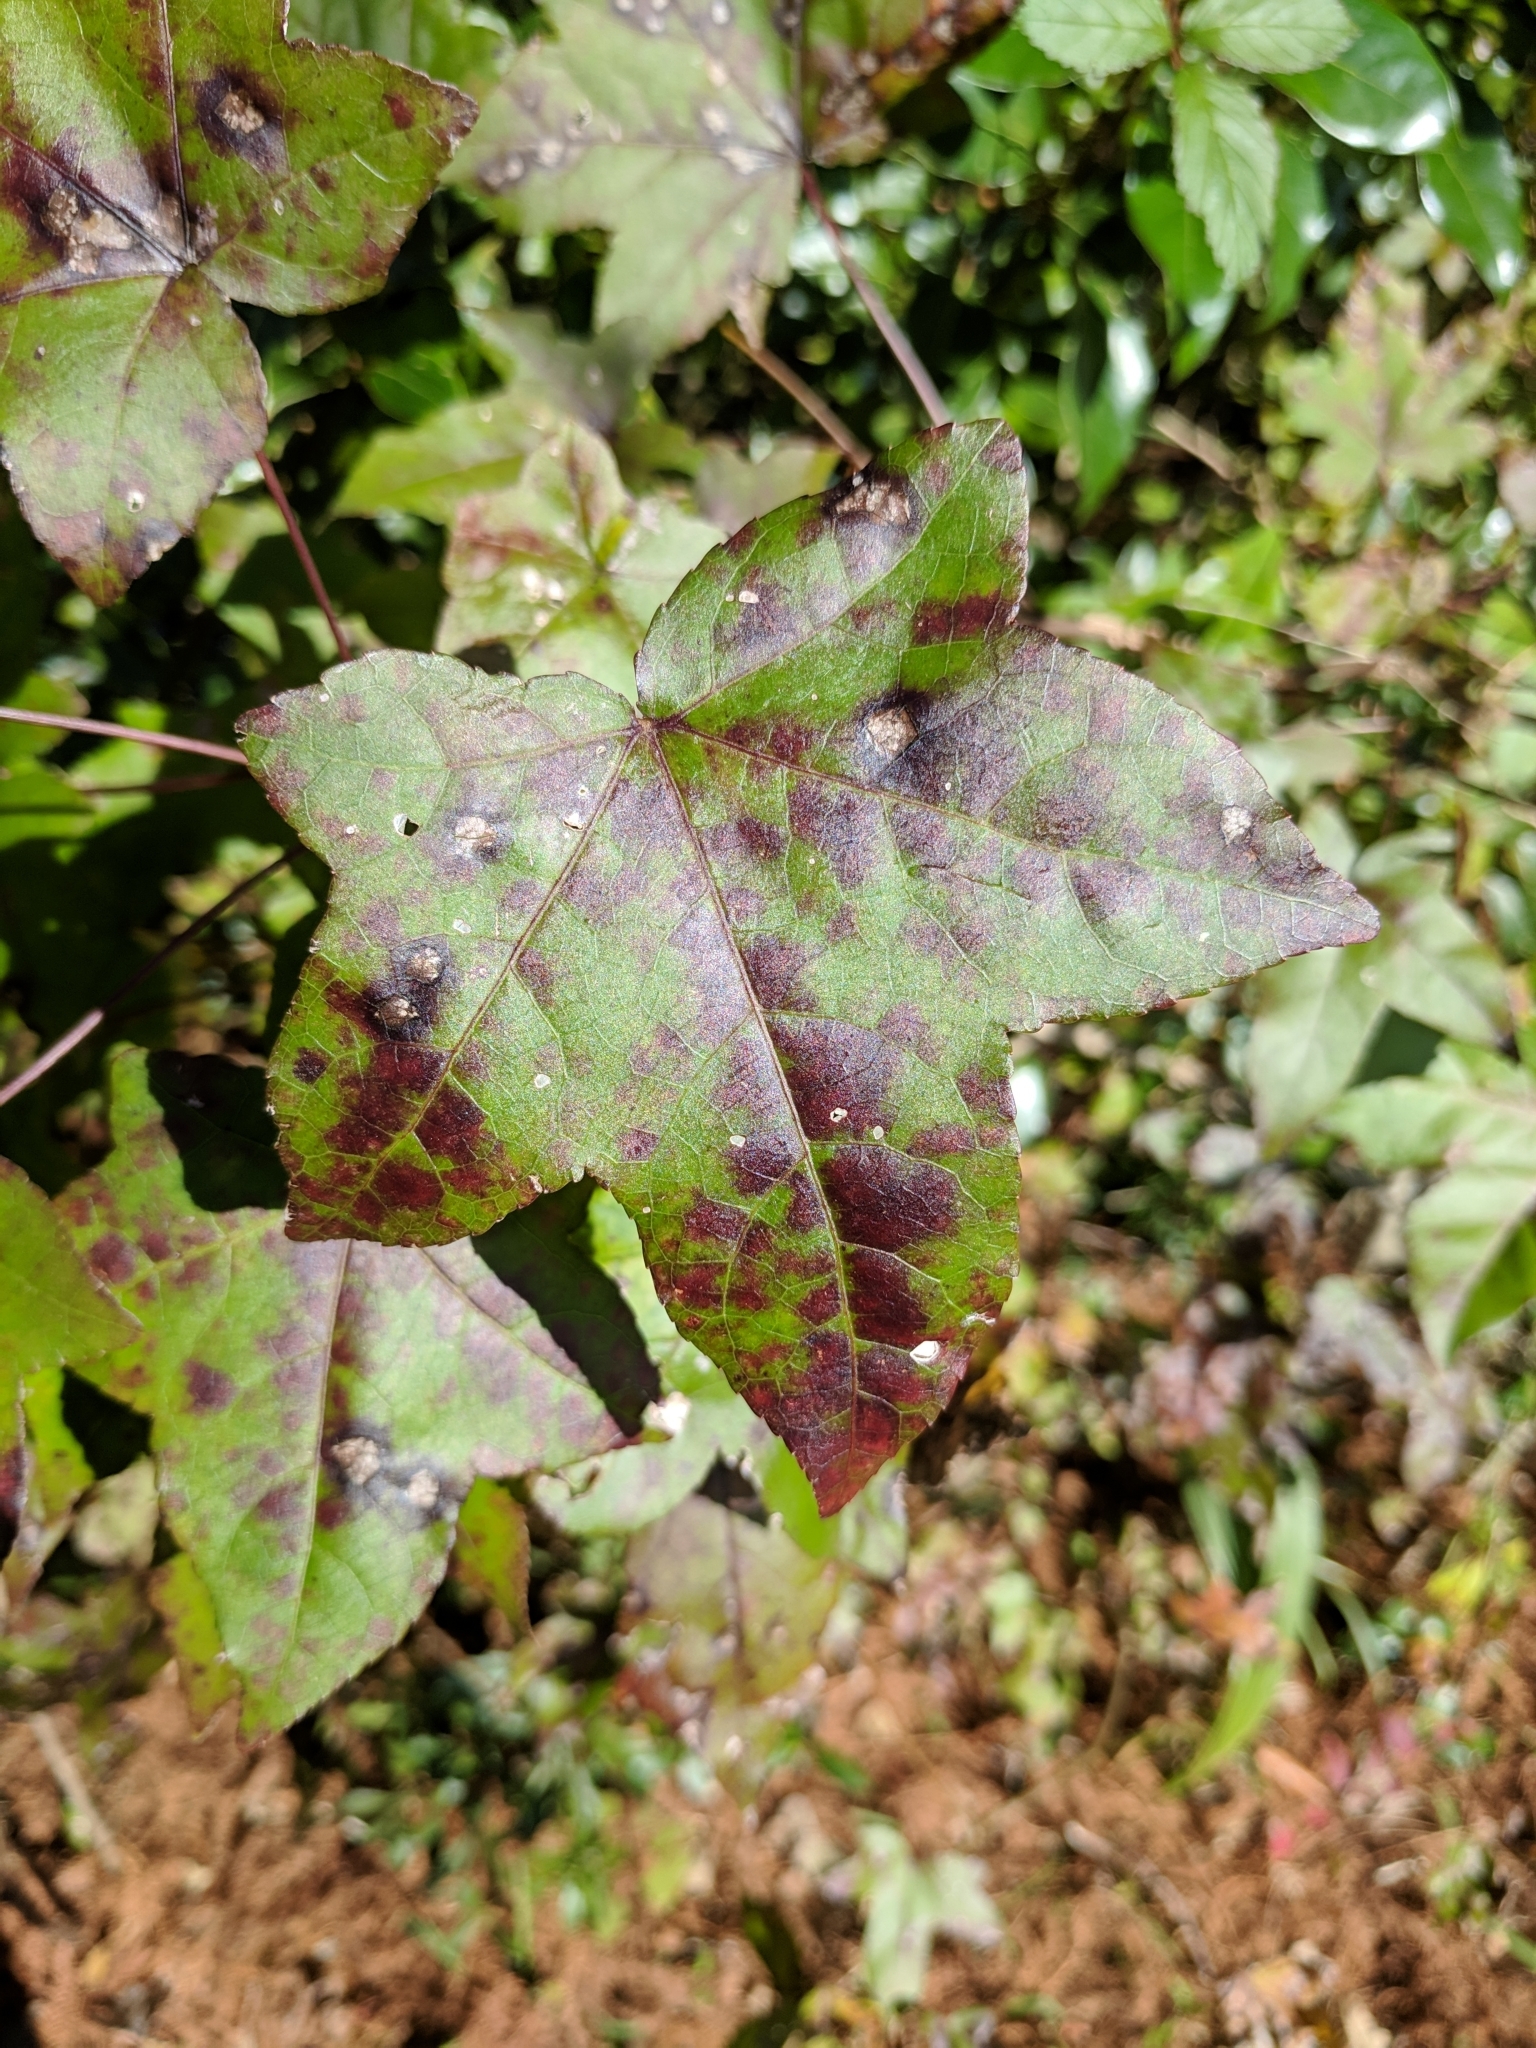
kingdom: Plantae
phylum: Tracheophyta
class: Magnoliopsida
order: Saxifragales
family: Altingiaceae
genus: Liquidambar
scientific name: Liquidambar styraciflua
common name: Sweet gum
